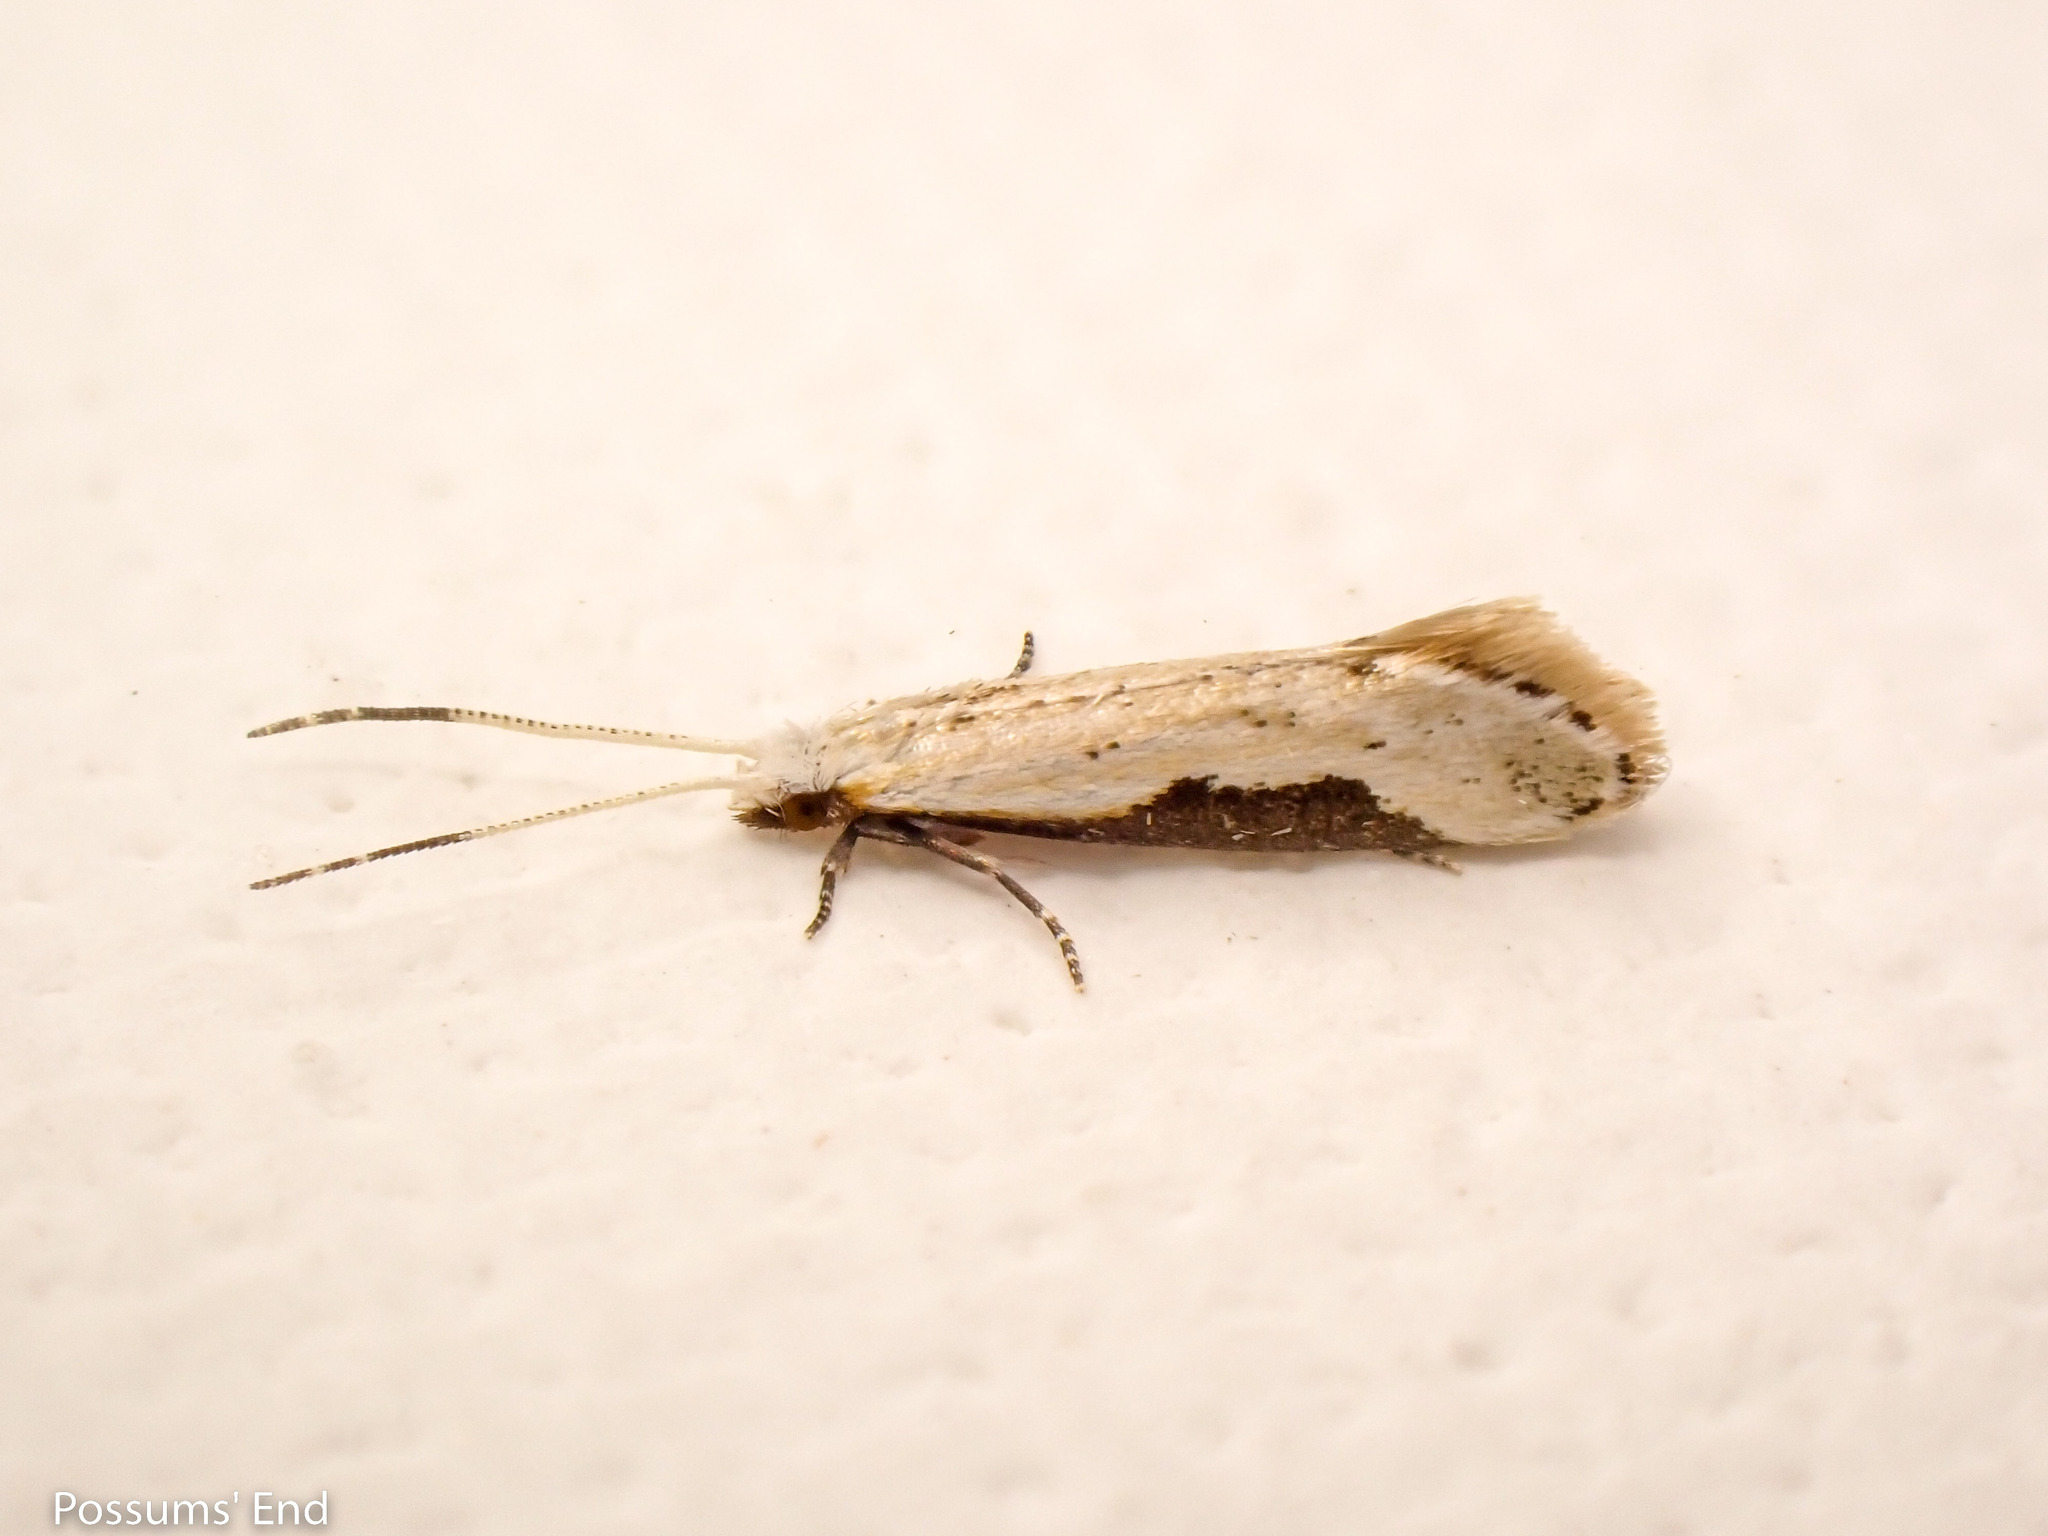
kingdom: Animalia
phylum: Arthropoda
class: Insecta
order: Lepidoptera
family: Tineidae
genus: Sagephora
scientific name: Sagephora phortegella
